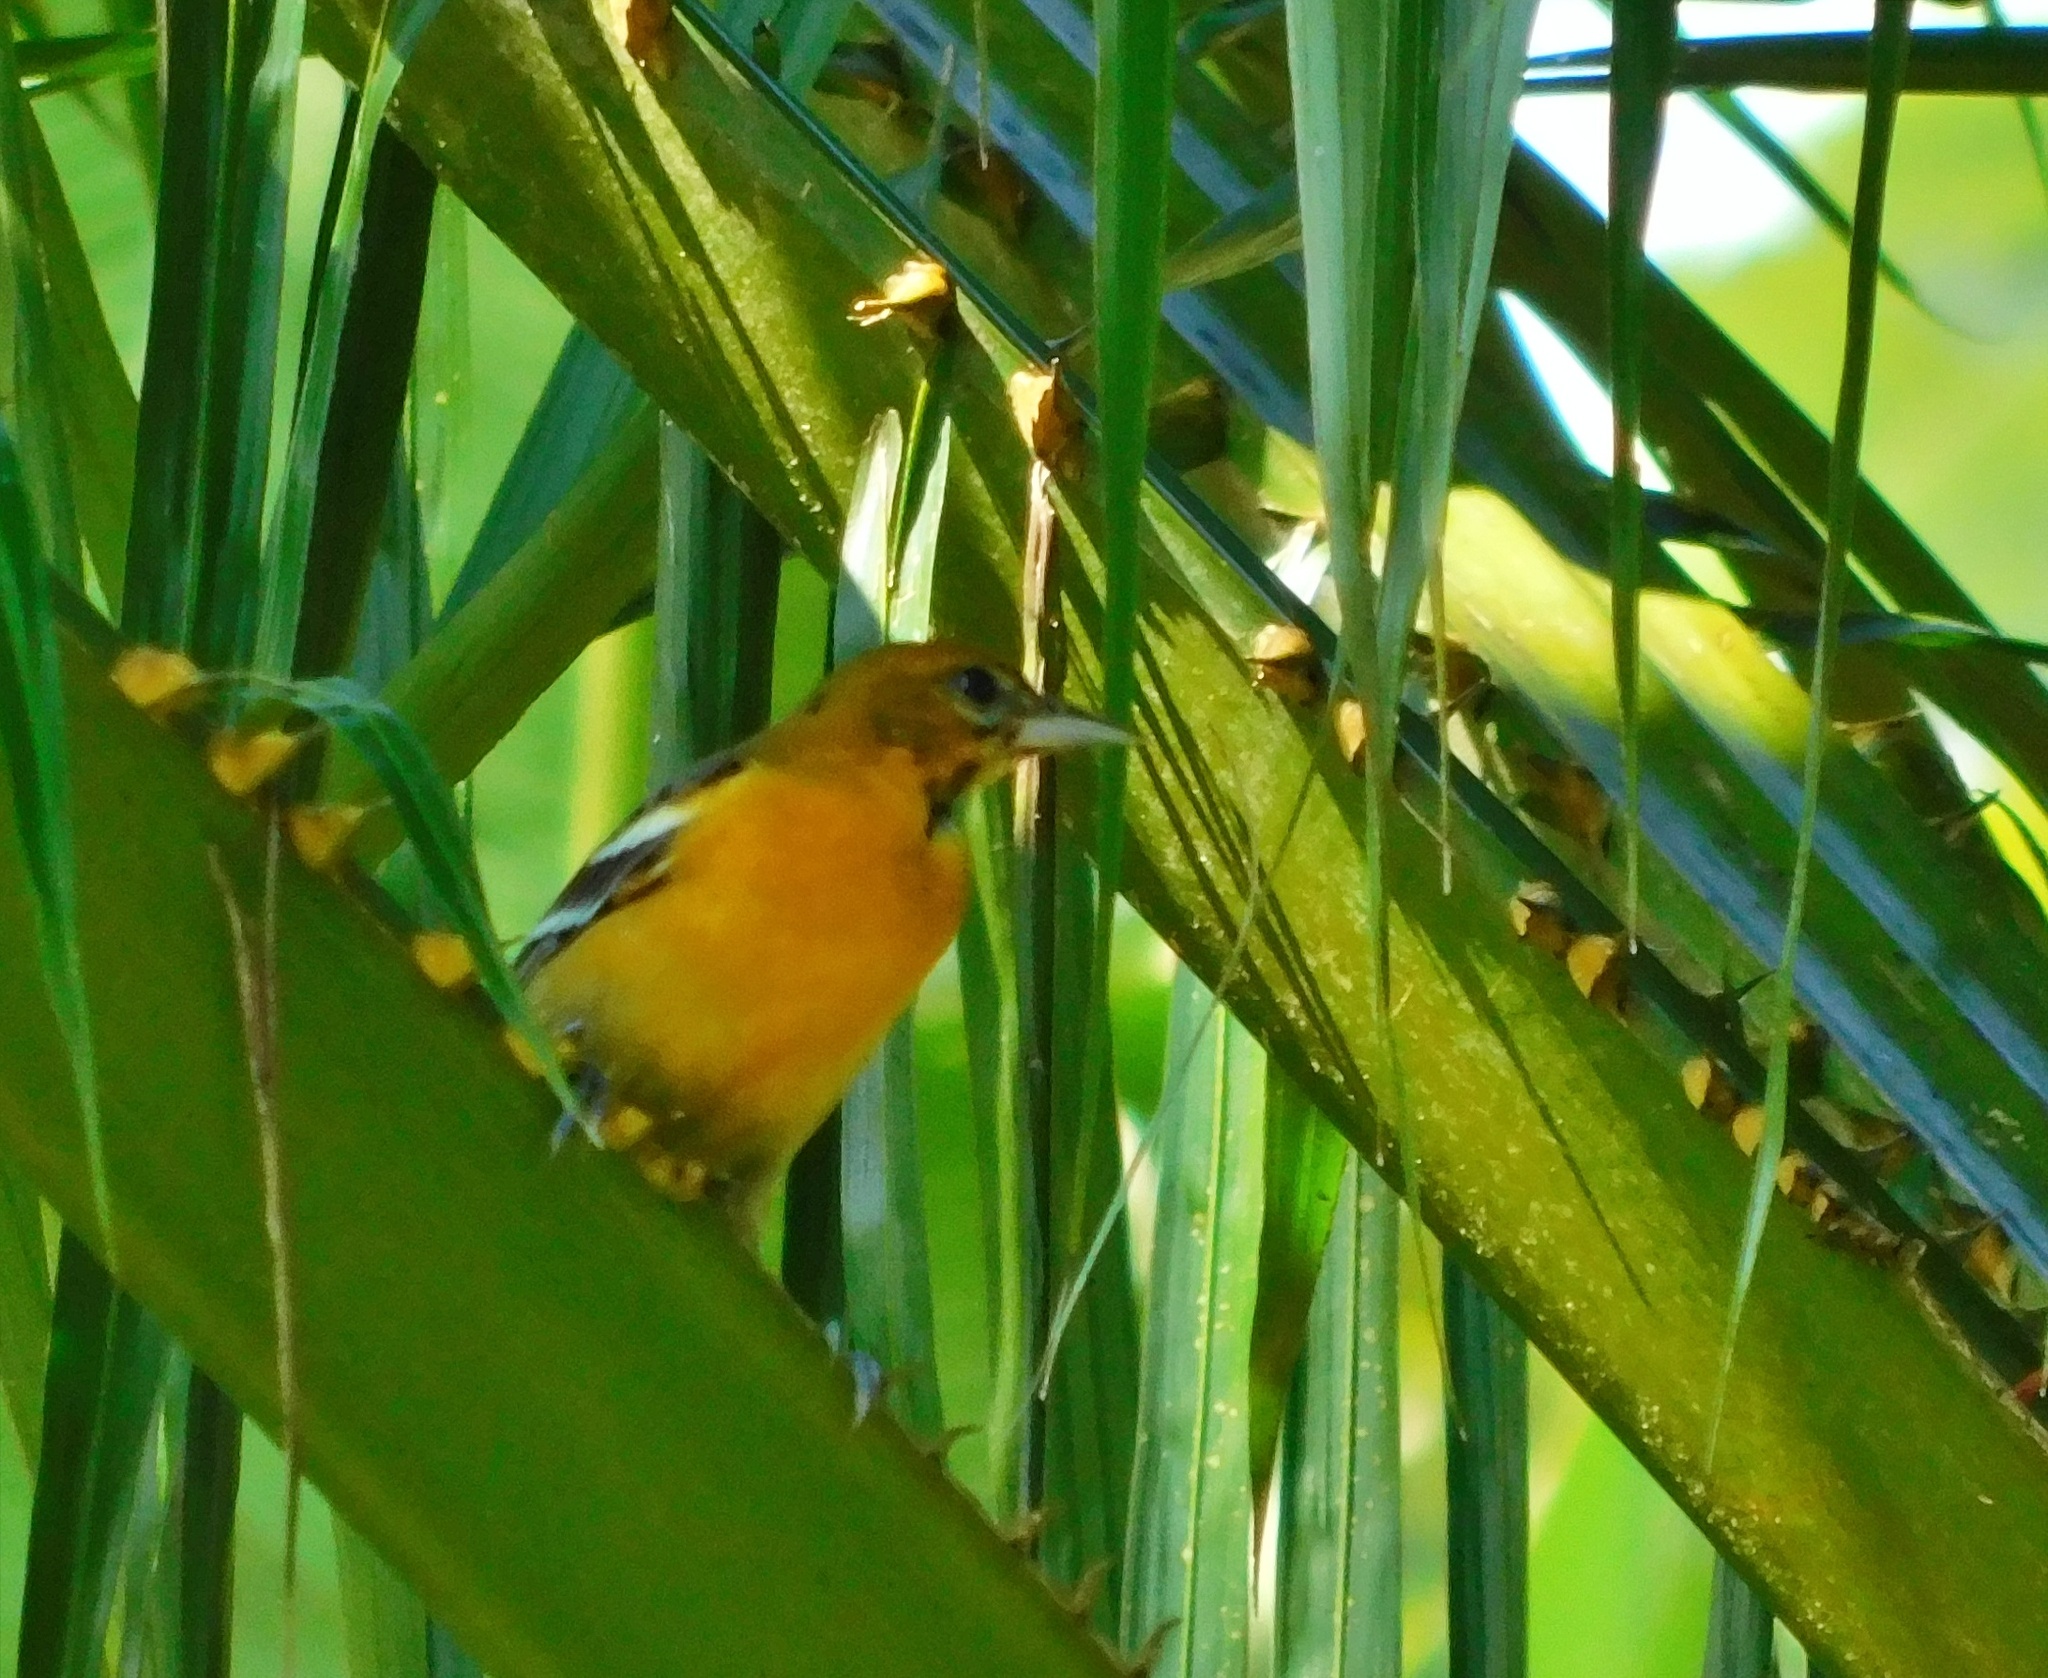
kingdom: Animalia
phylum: Chordata
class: Aves
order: Passeriformes
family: Icteridae
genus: Icterus
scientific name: Icterus galbula
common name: Baltimore oriole
